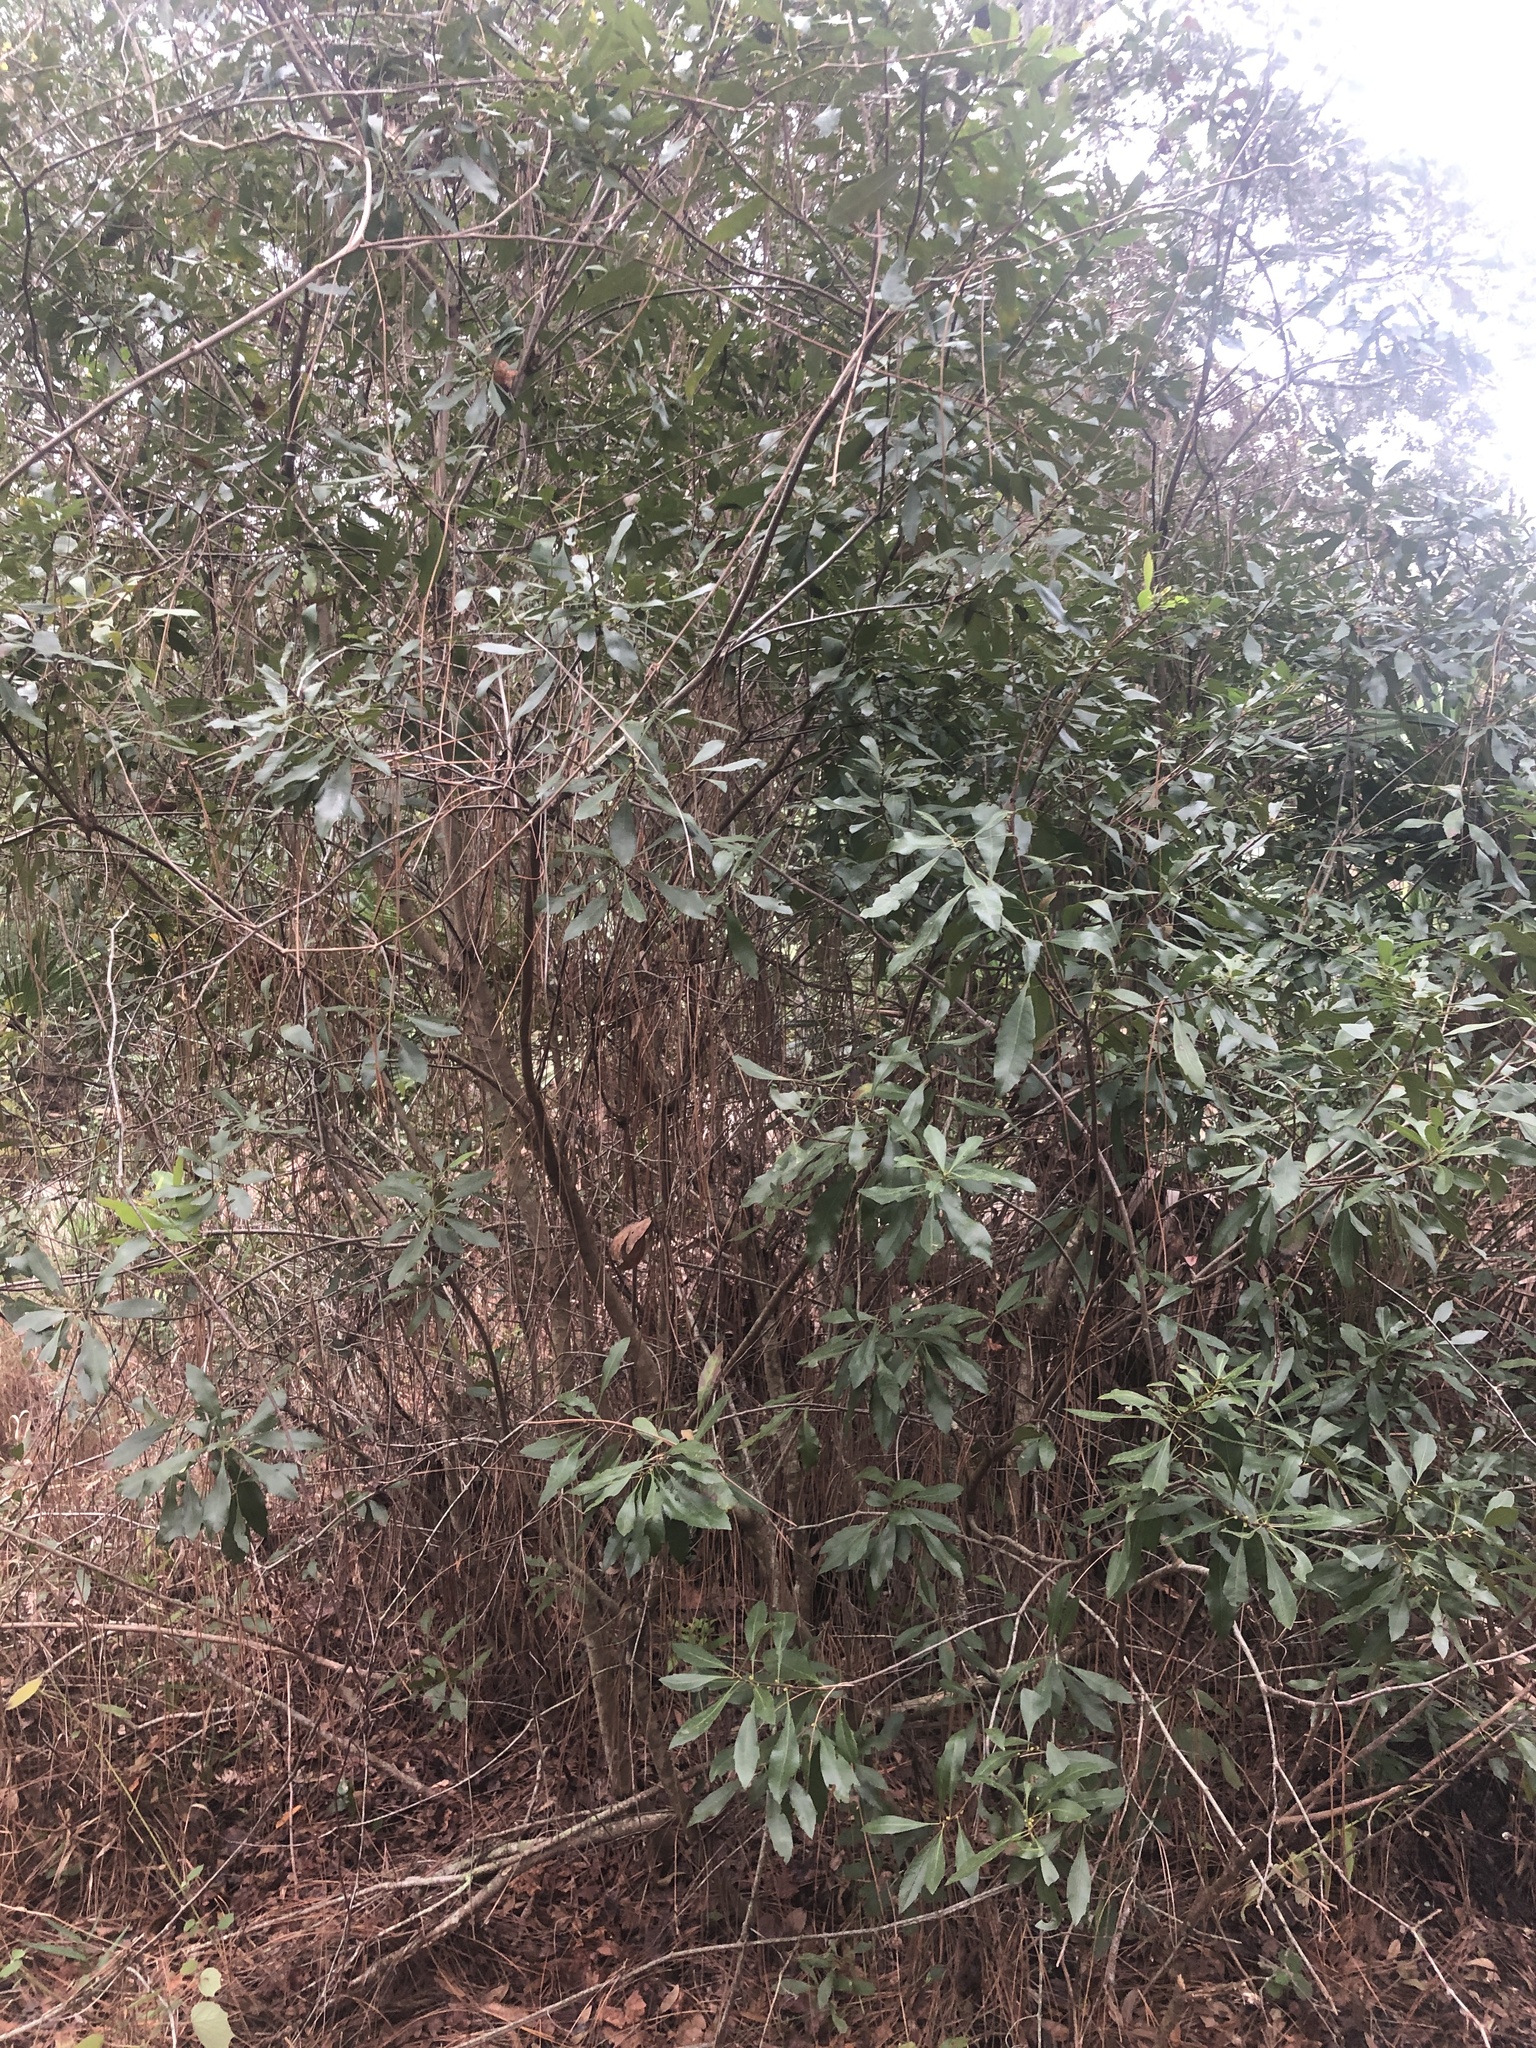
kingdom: Plantae
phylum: Tracheophyta
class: Magnoliopsida
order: Fagales
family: Myricaceae
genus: Morella
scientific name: Morella cerifera
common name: Wax myrtle
